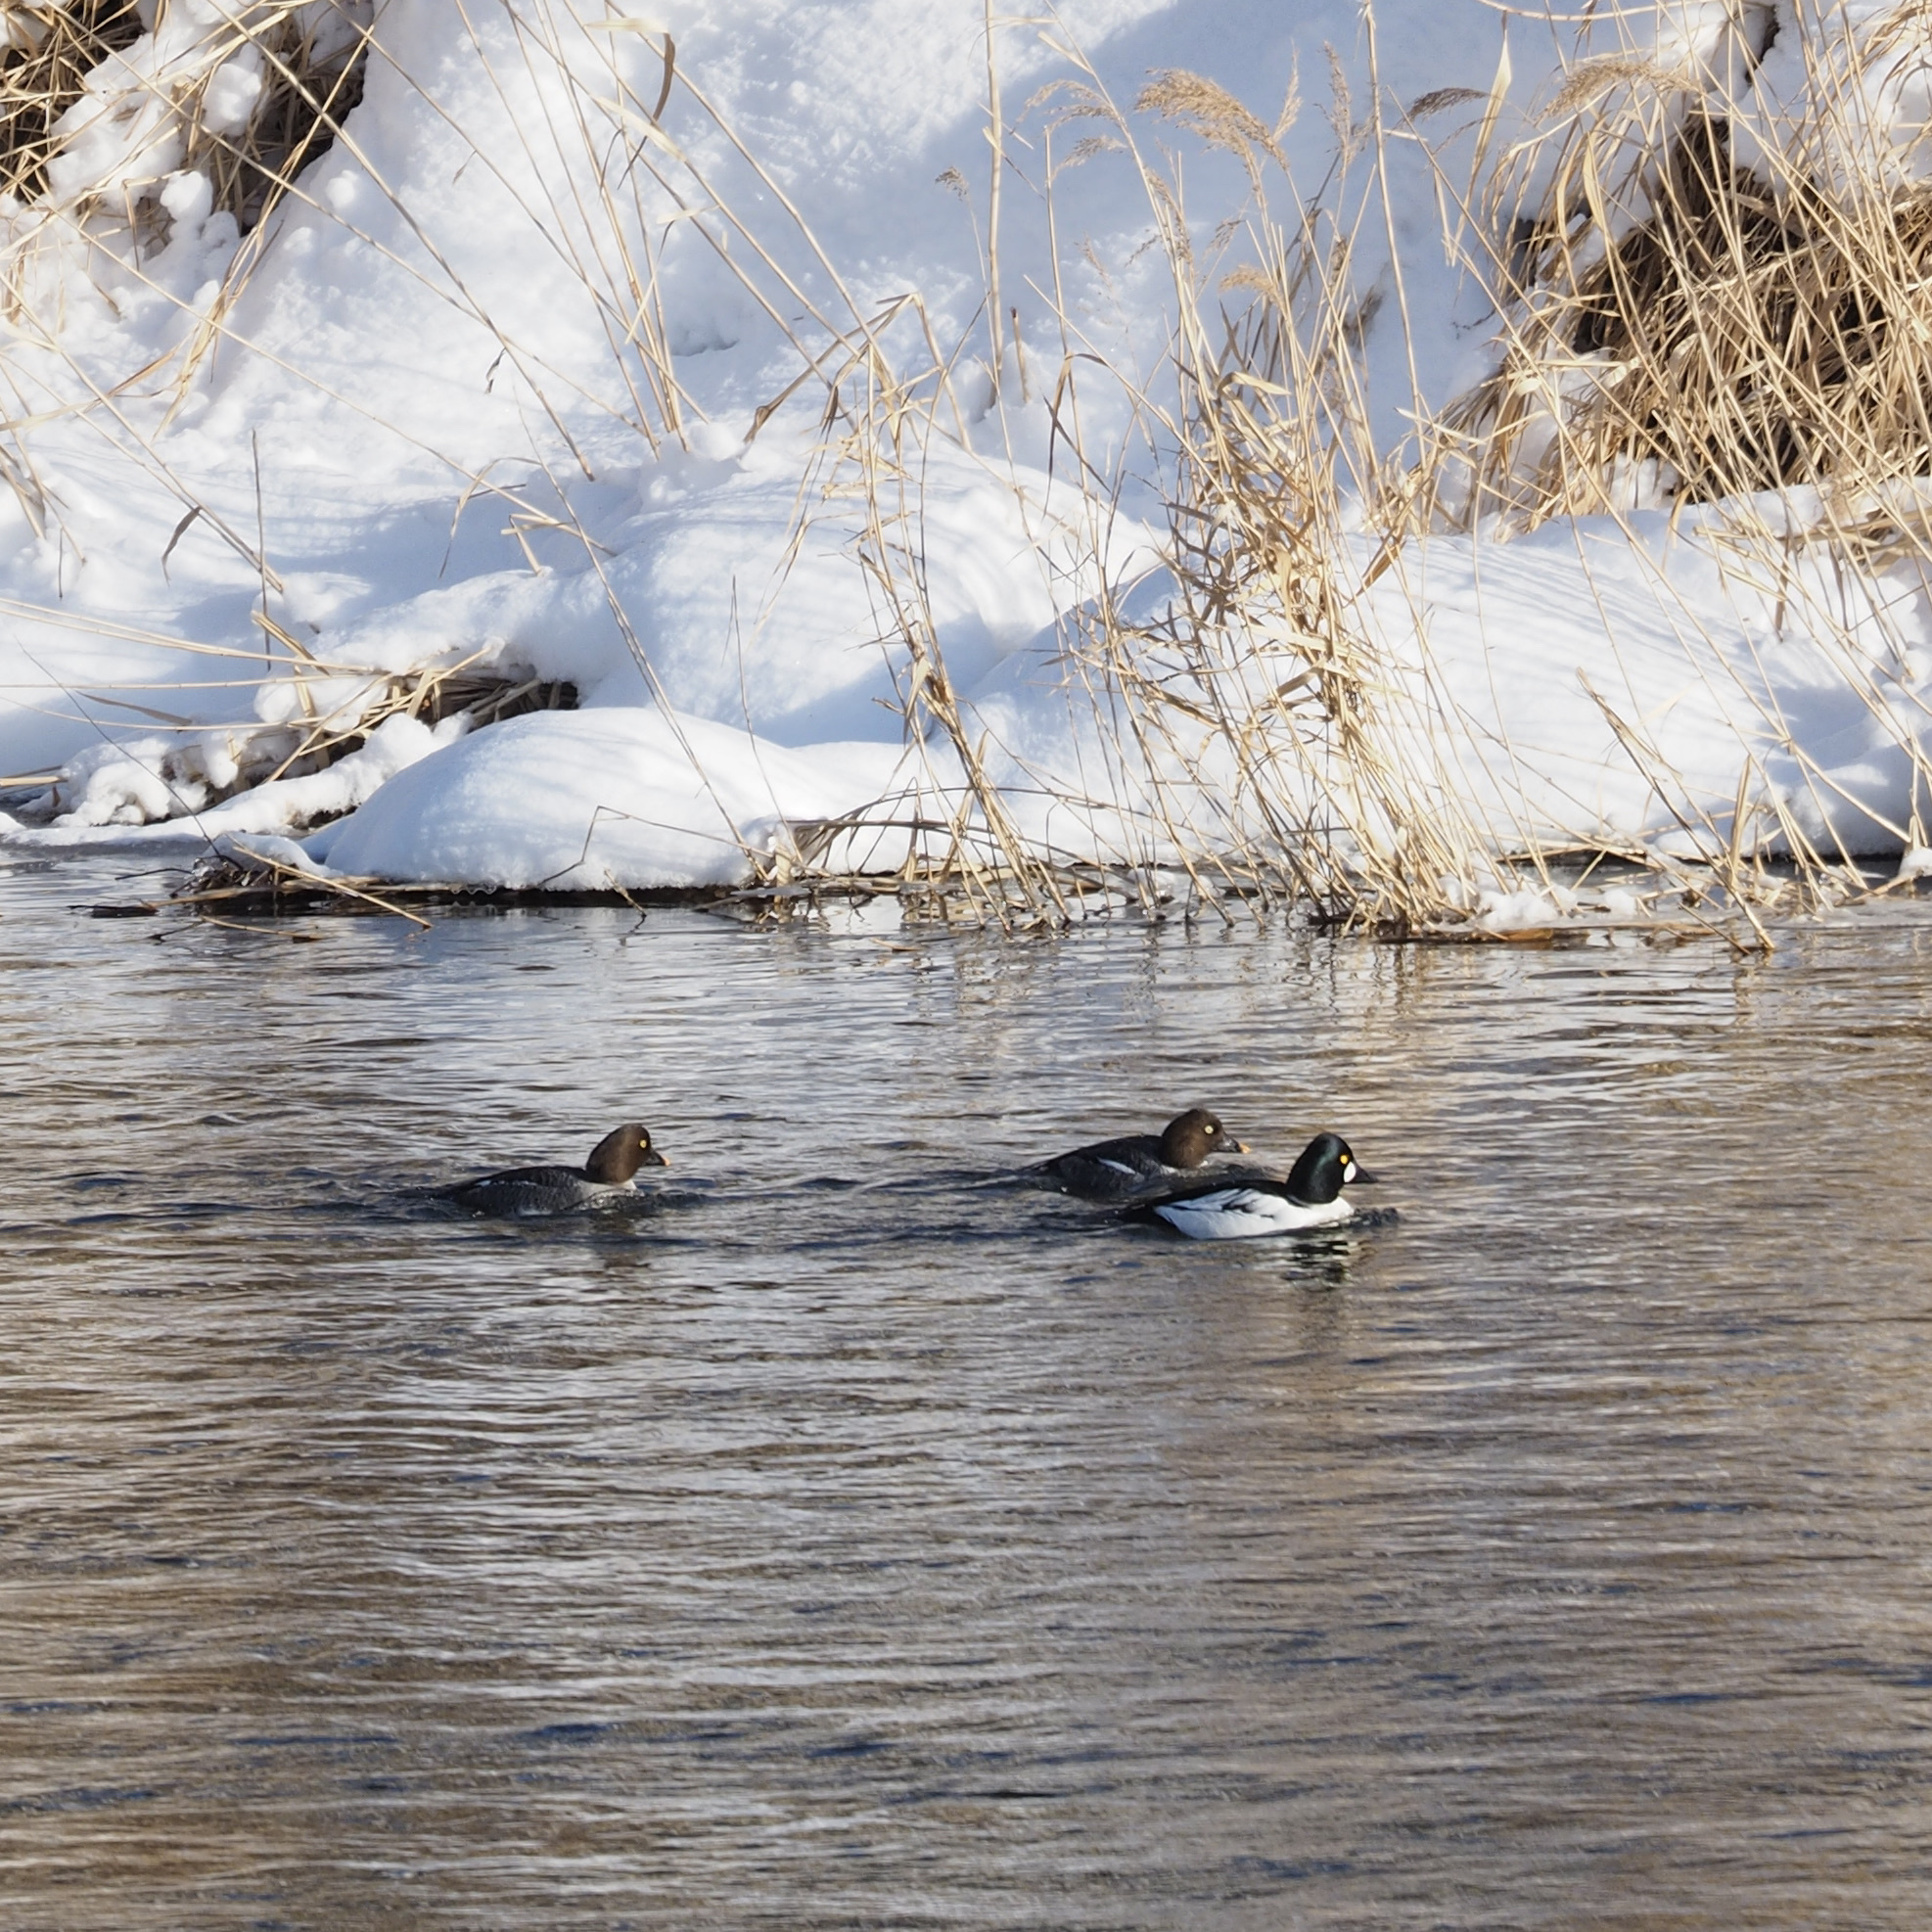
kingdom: Animalia
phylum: Chordata
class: Aves
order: Anseriformes
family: Anatidae
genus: Bucephala
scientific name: Bucephala clangula
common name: Common goldeneye
